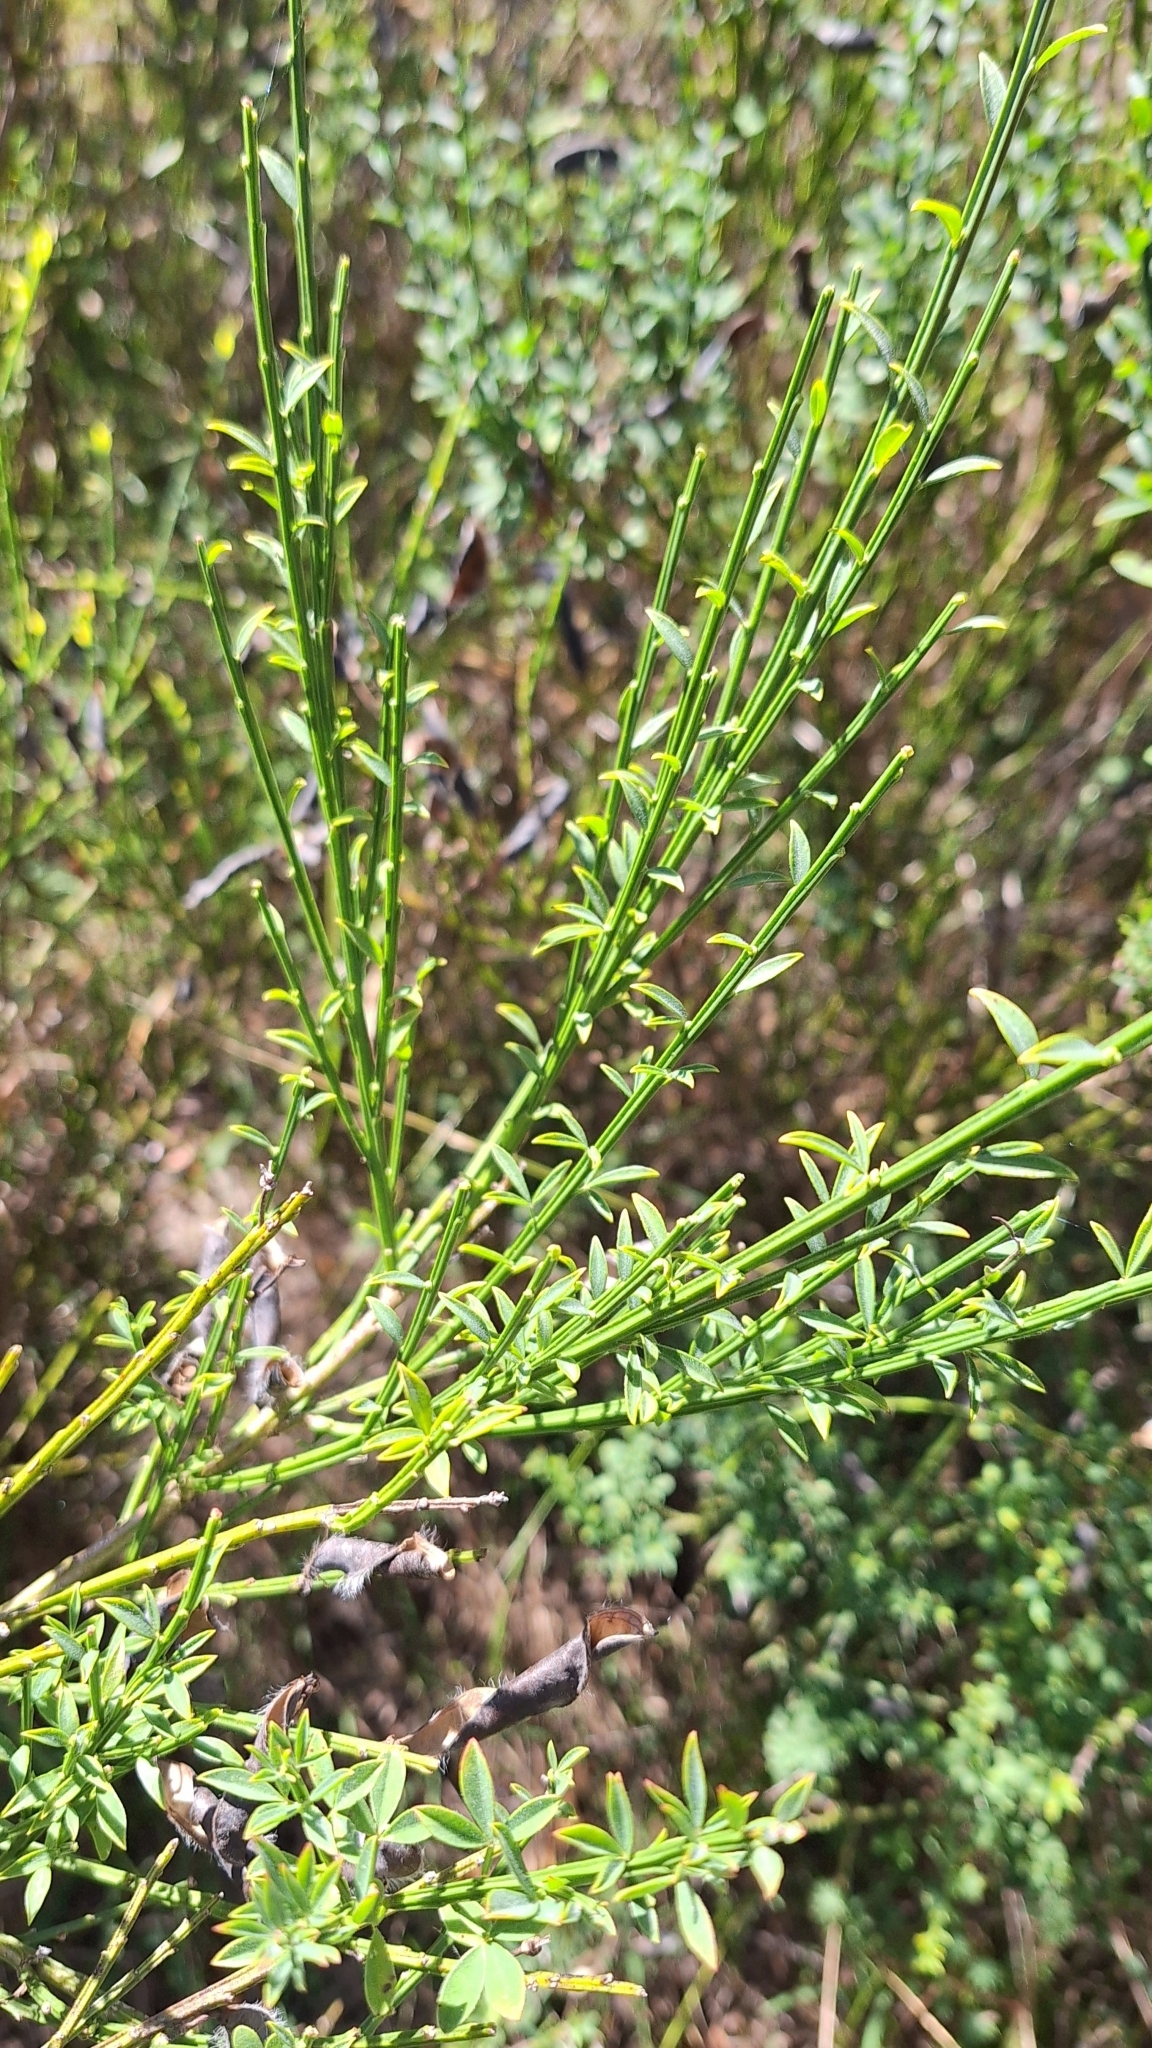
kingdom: Plantae
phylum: Tracheophyta
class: Magnoliopsida
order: Fabales
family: Fabaceae
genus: Cytisus
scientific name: Cytisus scoparius
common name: Scotch broom
